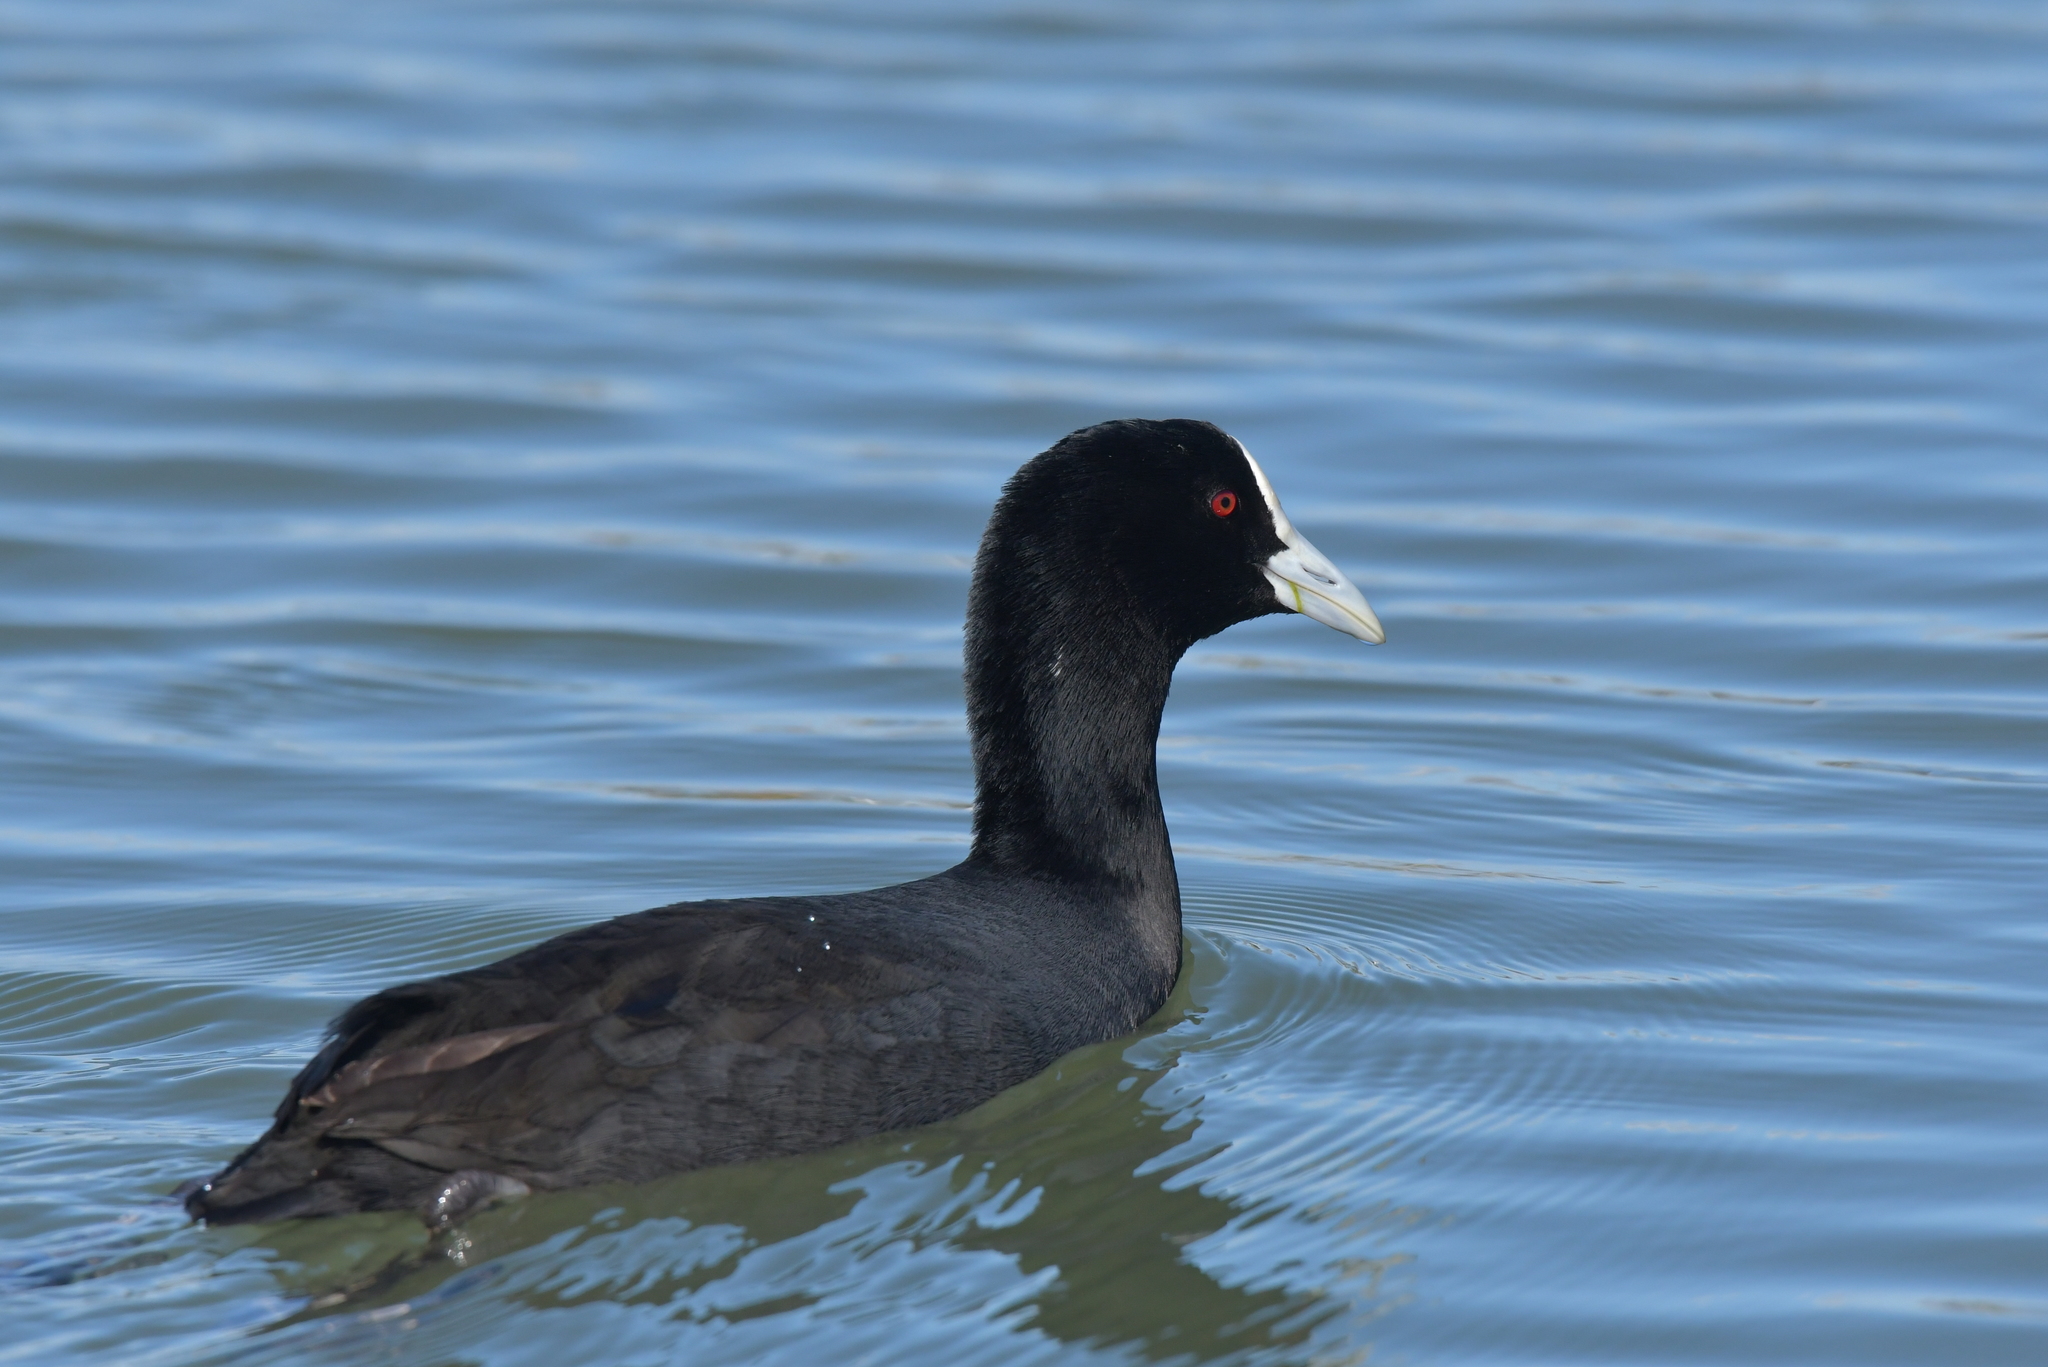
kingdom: Animalia
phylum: Chordata
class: Aves
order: Gruiformes
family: Rallidae
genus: Fulica
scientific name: Fulica atra
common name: Eurasian coot
